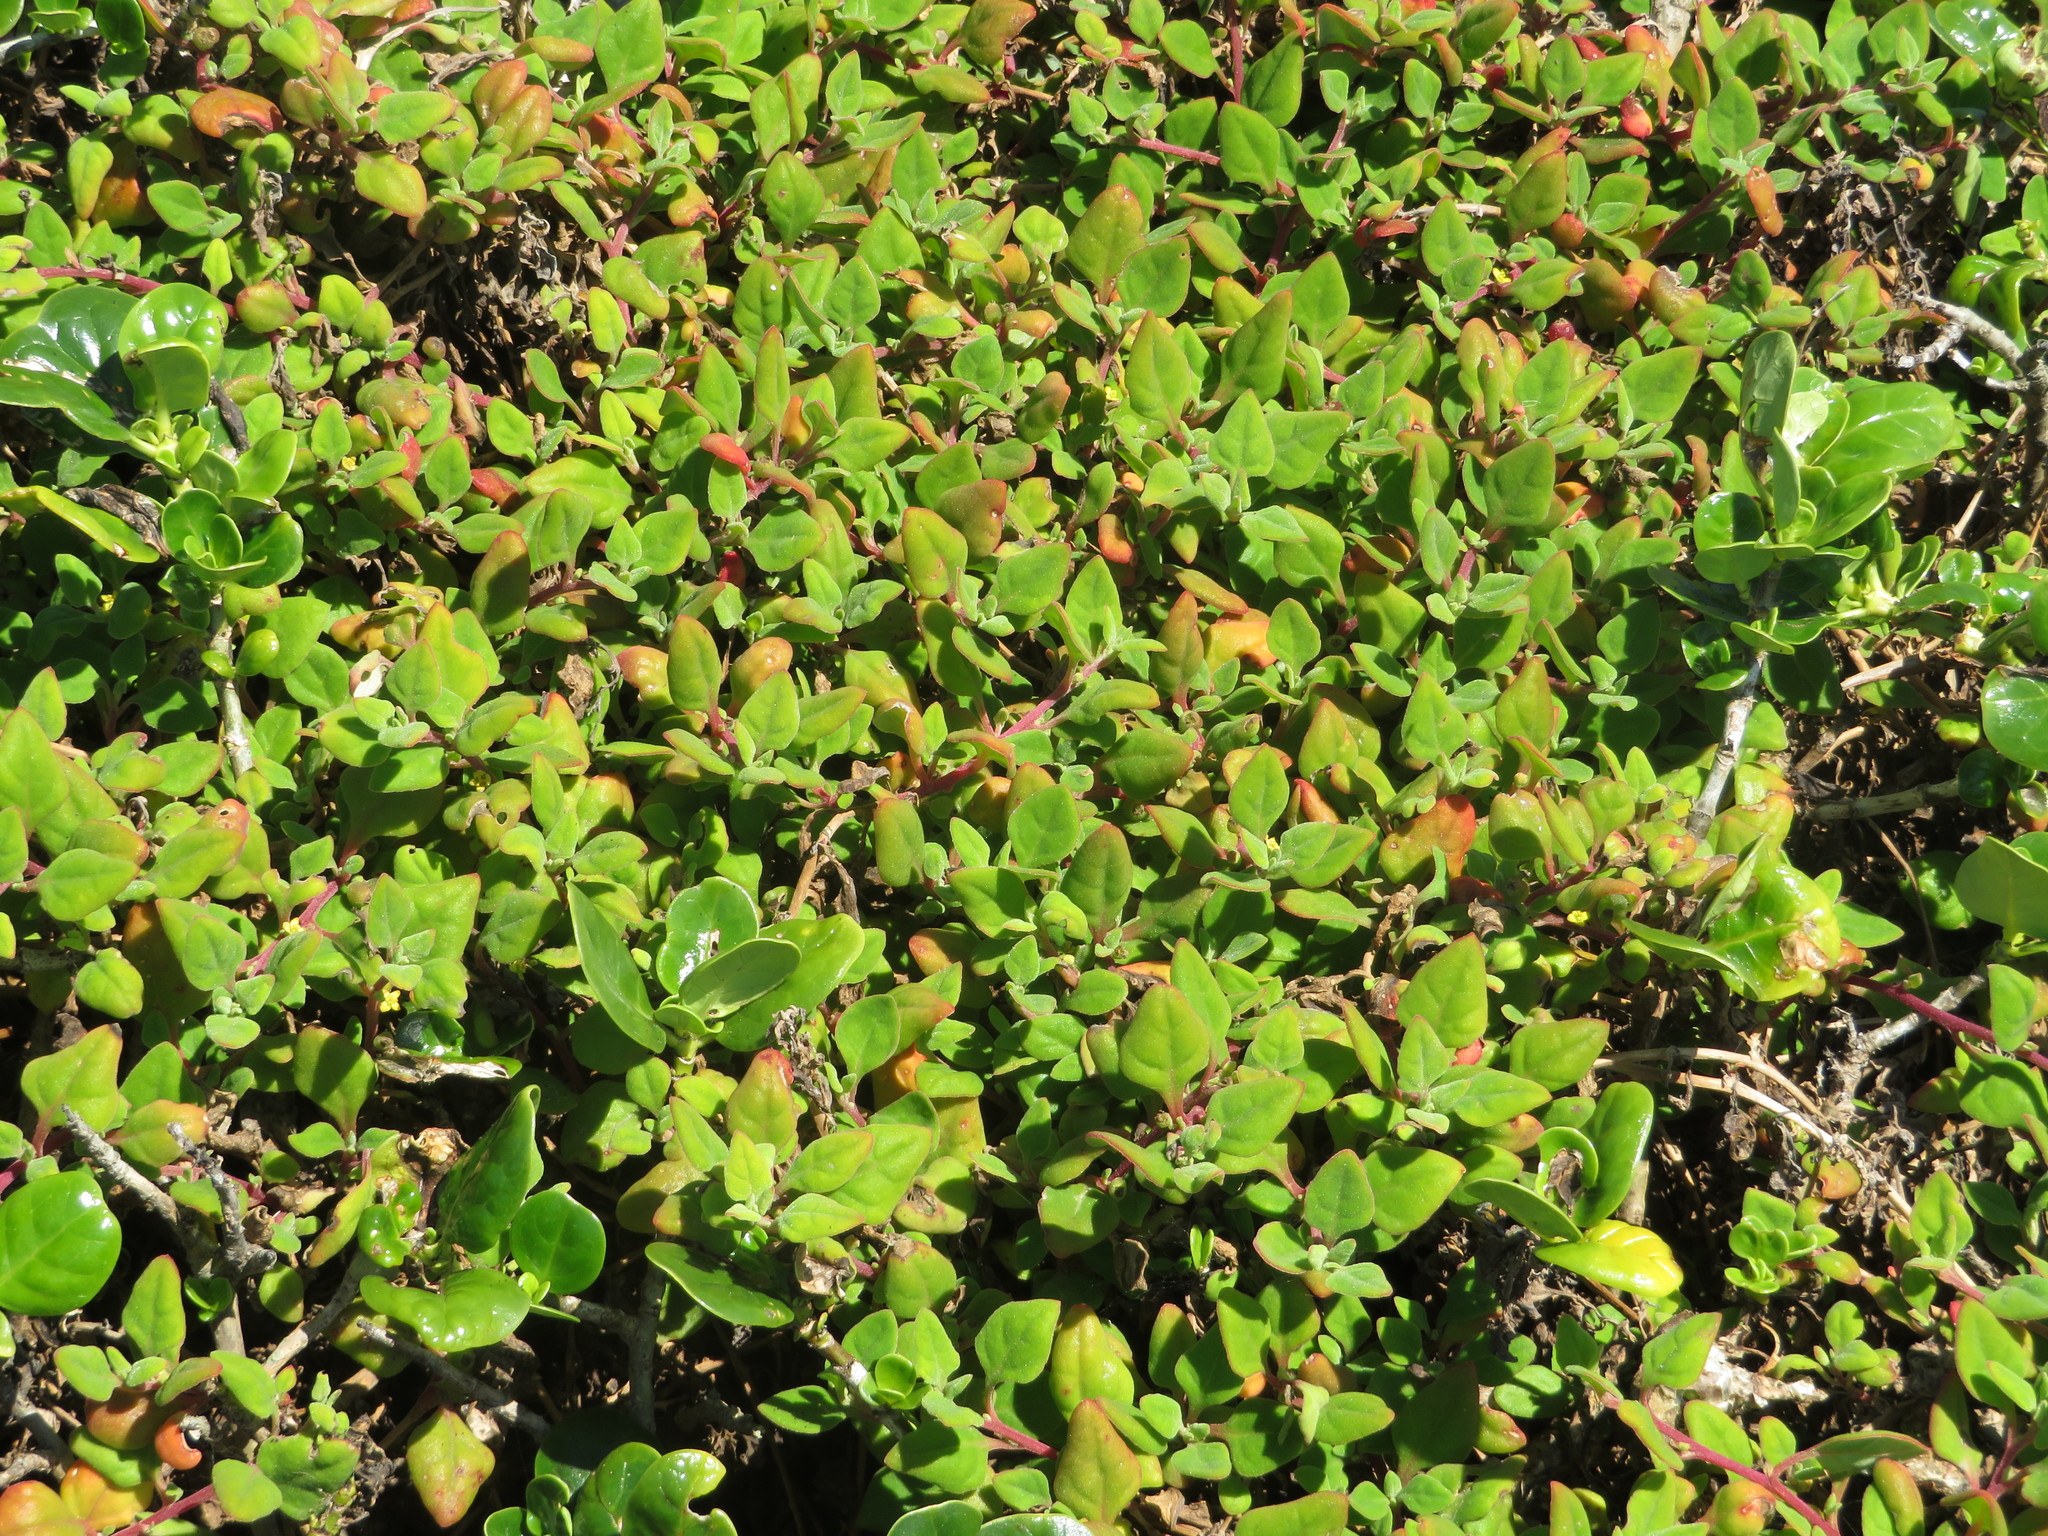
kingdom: Plantae
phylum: Tracheophyta
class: Magnoliopsida
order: Caryophyllales
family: Aizoaceae
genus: Tetragonia
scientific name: Tetragonia implexicoma
